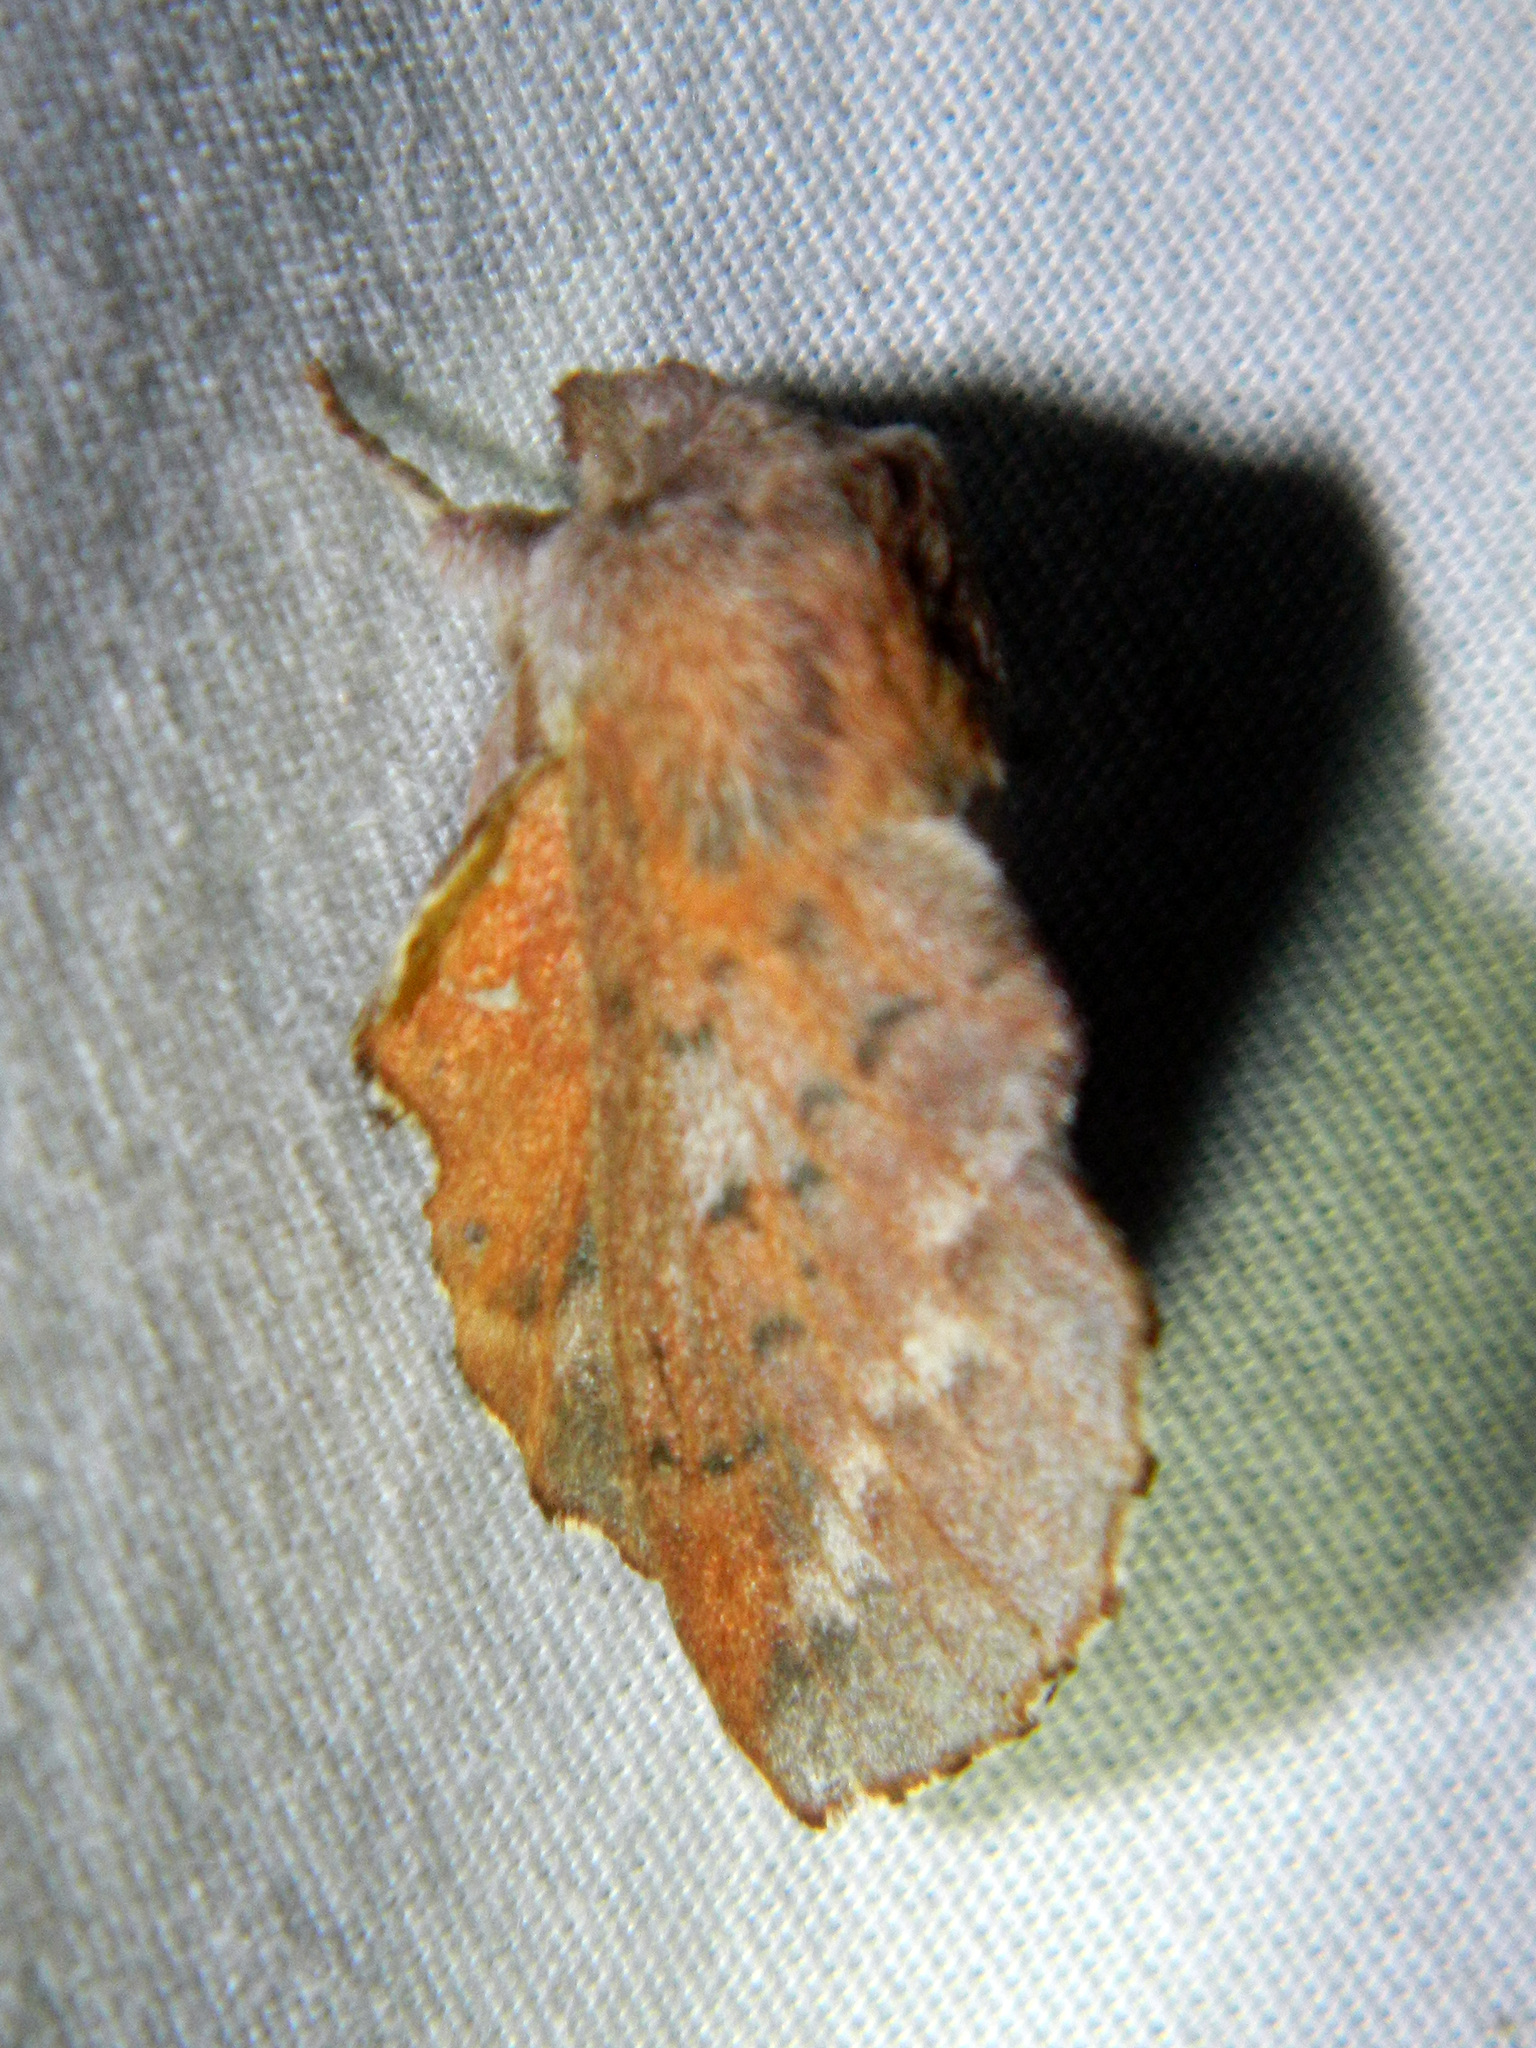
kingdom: Animalia
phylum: Arthropoda
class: Insecta
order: Lepidoptera
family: Lasiocampidae
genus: Phyllodesma
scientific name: Phyllodesma americana
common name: American lappet moth
